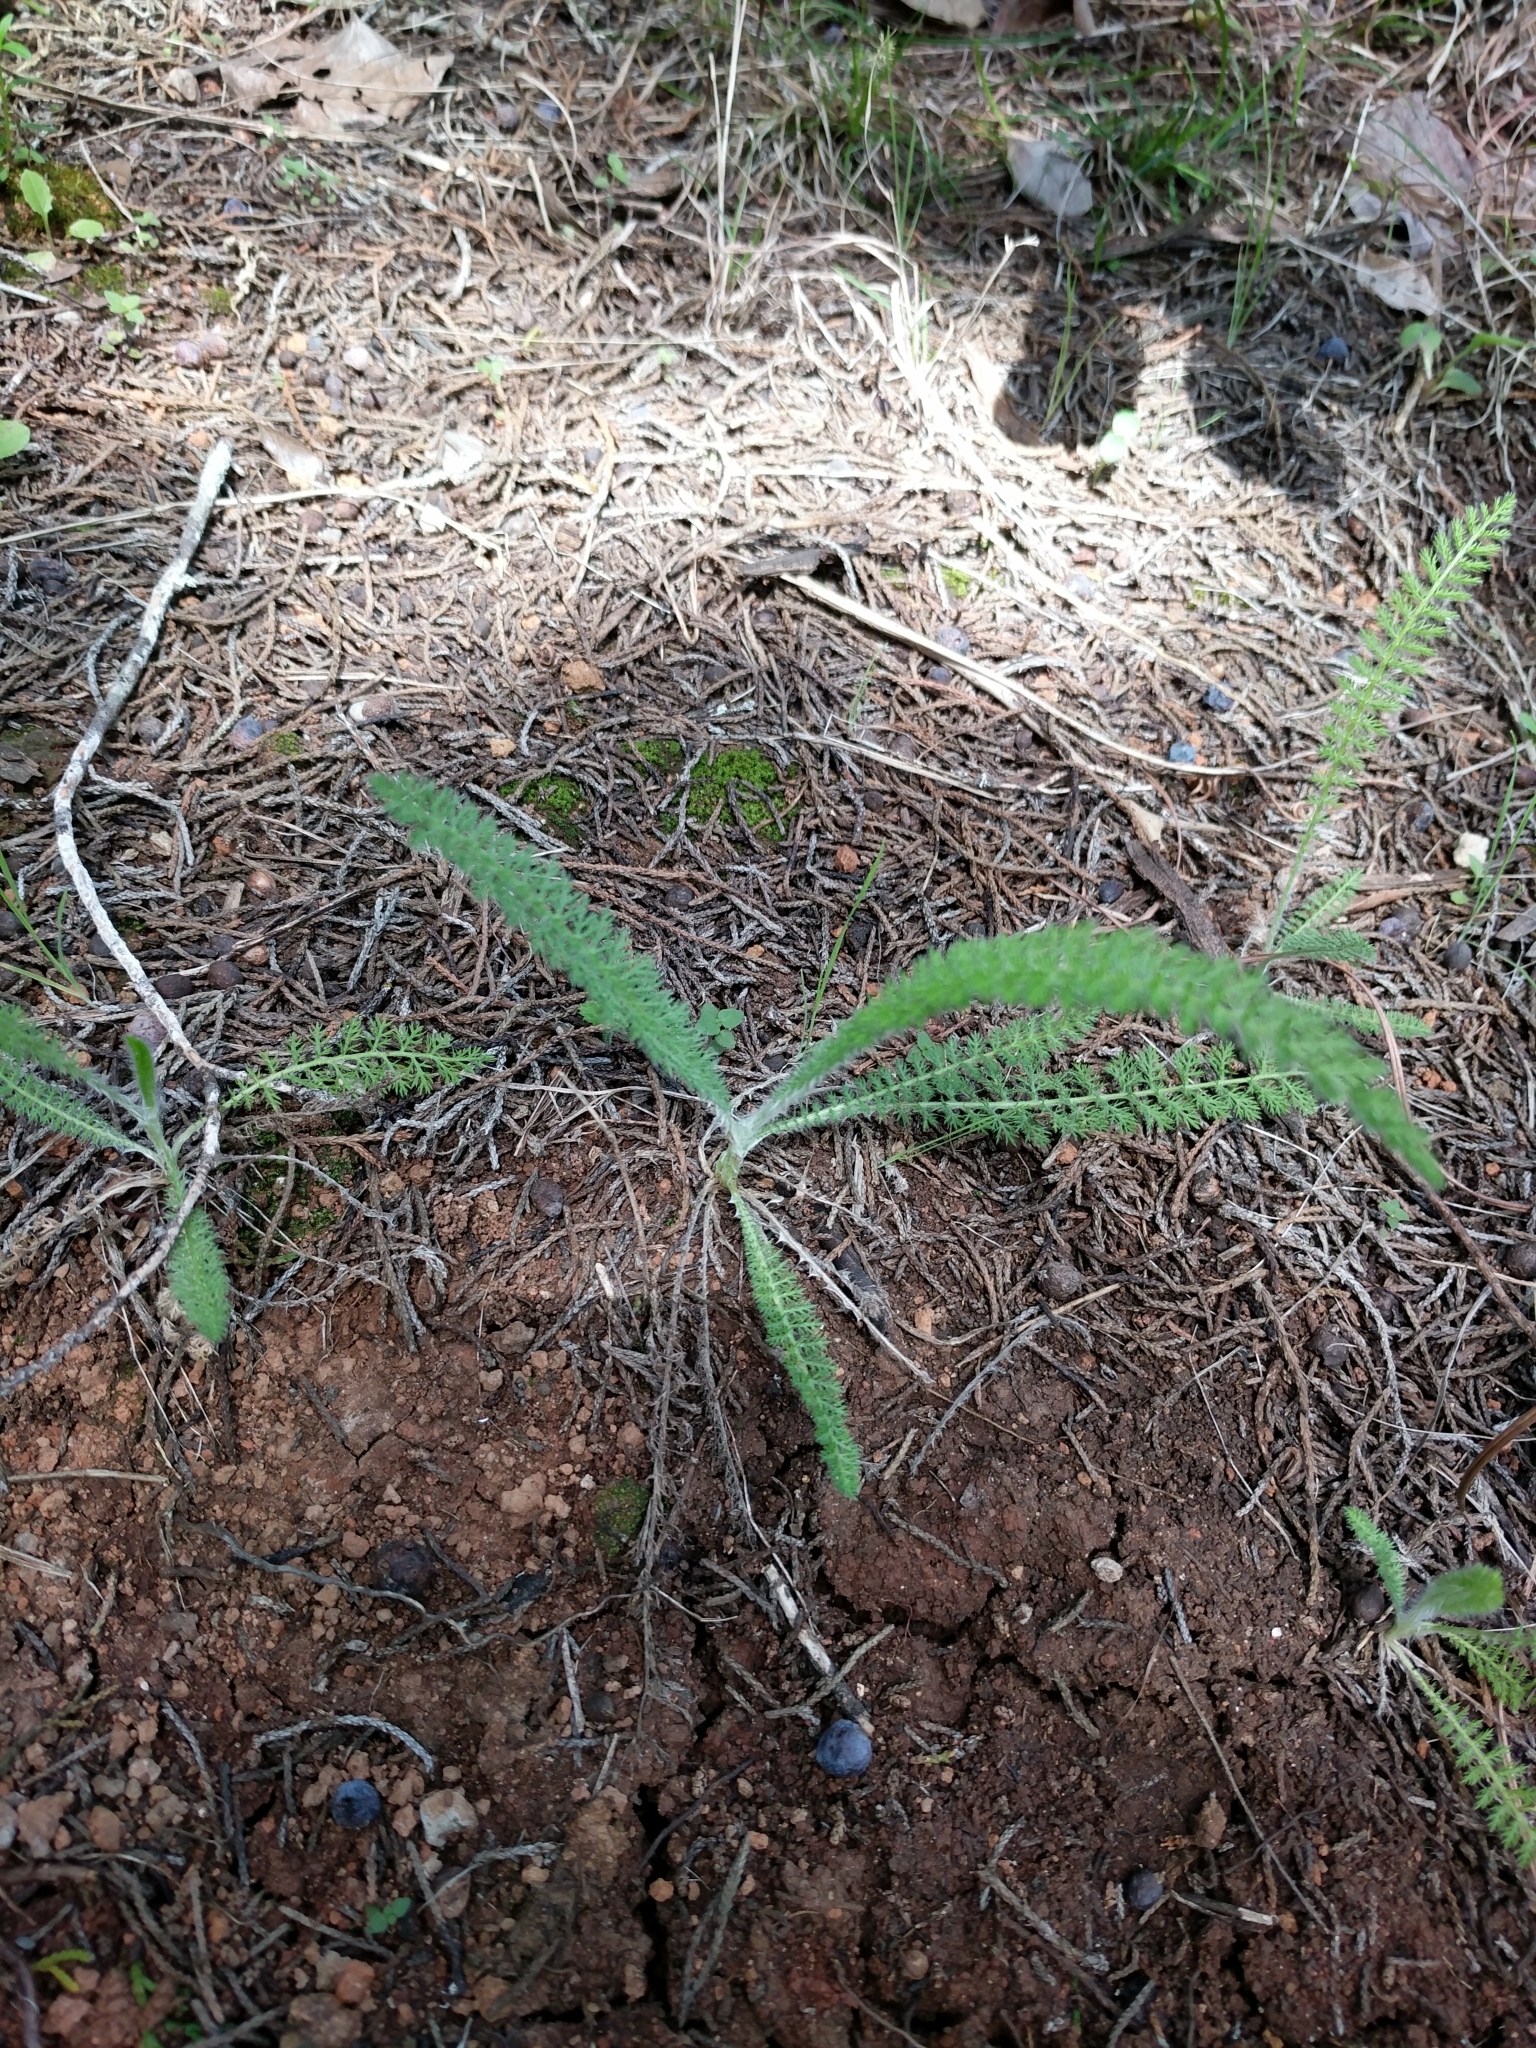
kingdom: Plantae
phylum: Tracheophyta
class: Magnoliopsida
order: Asterales
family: Asteraceae
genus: Achillea
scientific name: Achillea millefolium
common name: Yarrow
